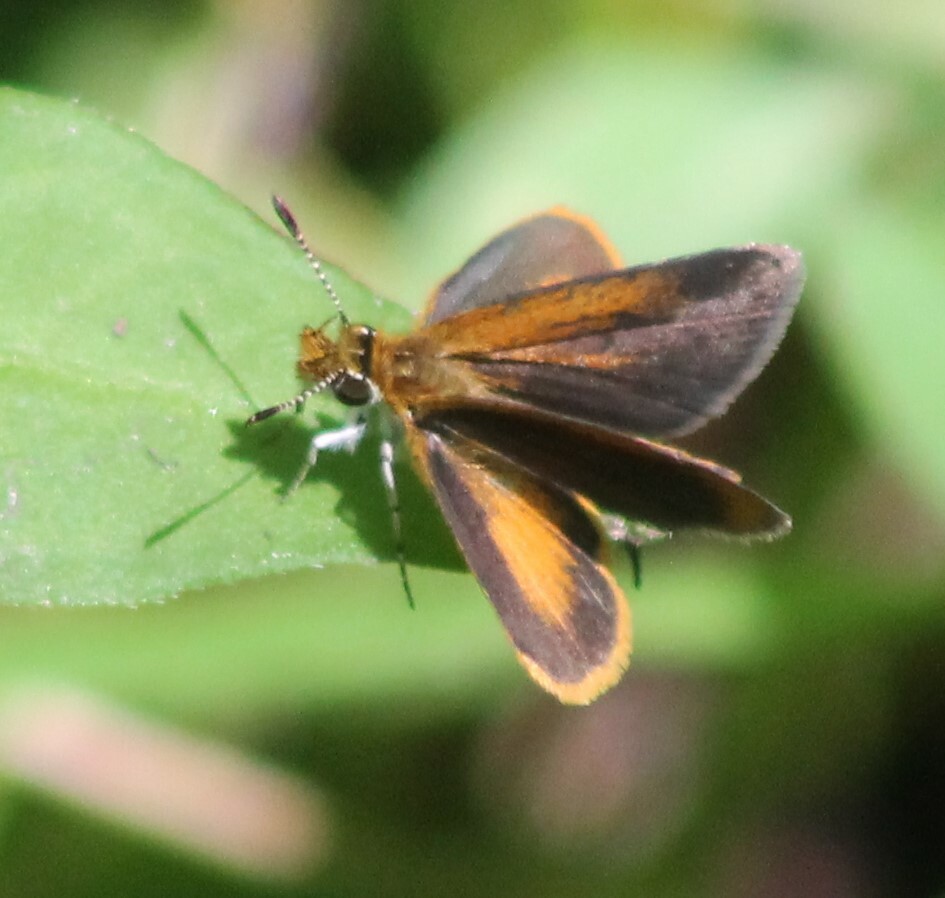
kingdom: Animalia
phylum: Arthropoda
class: Insecta
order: Lepidoptera
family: Hesperiidae
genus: Ancyloxypha
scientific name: Ancyloxypha numitor
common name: Least skipper
